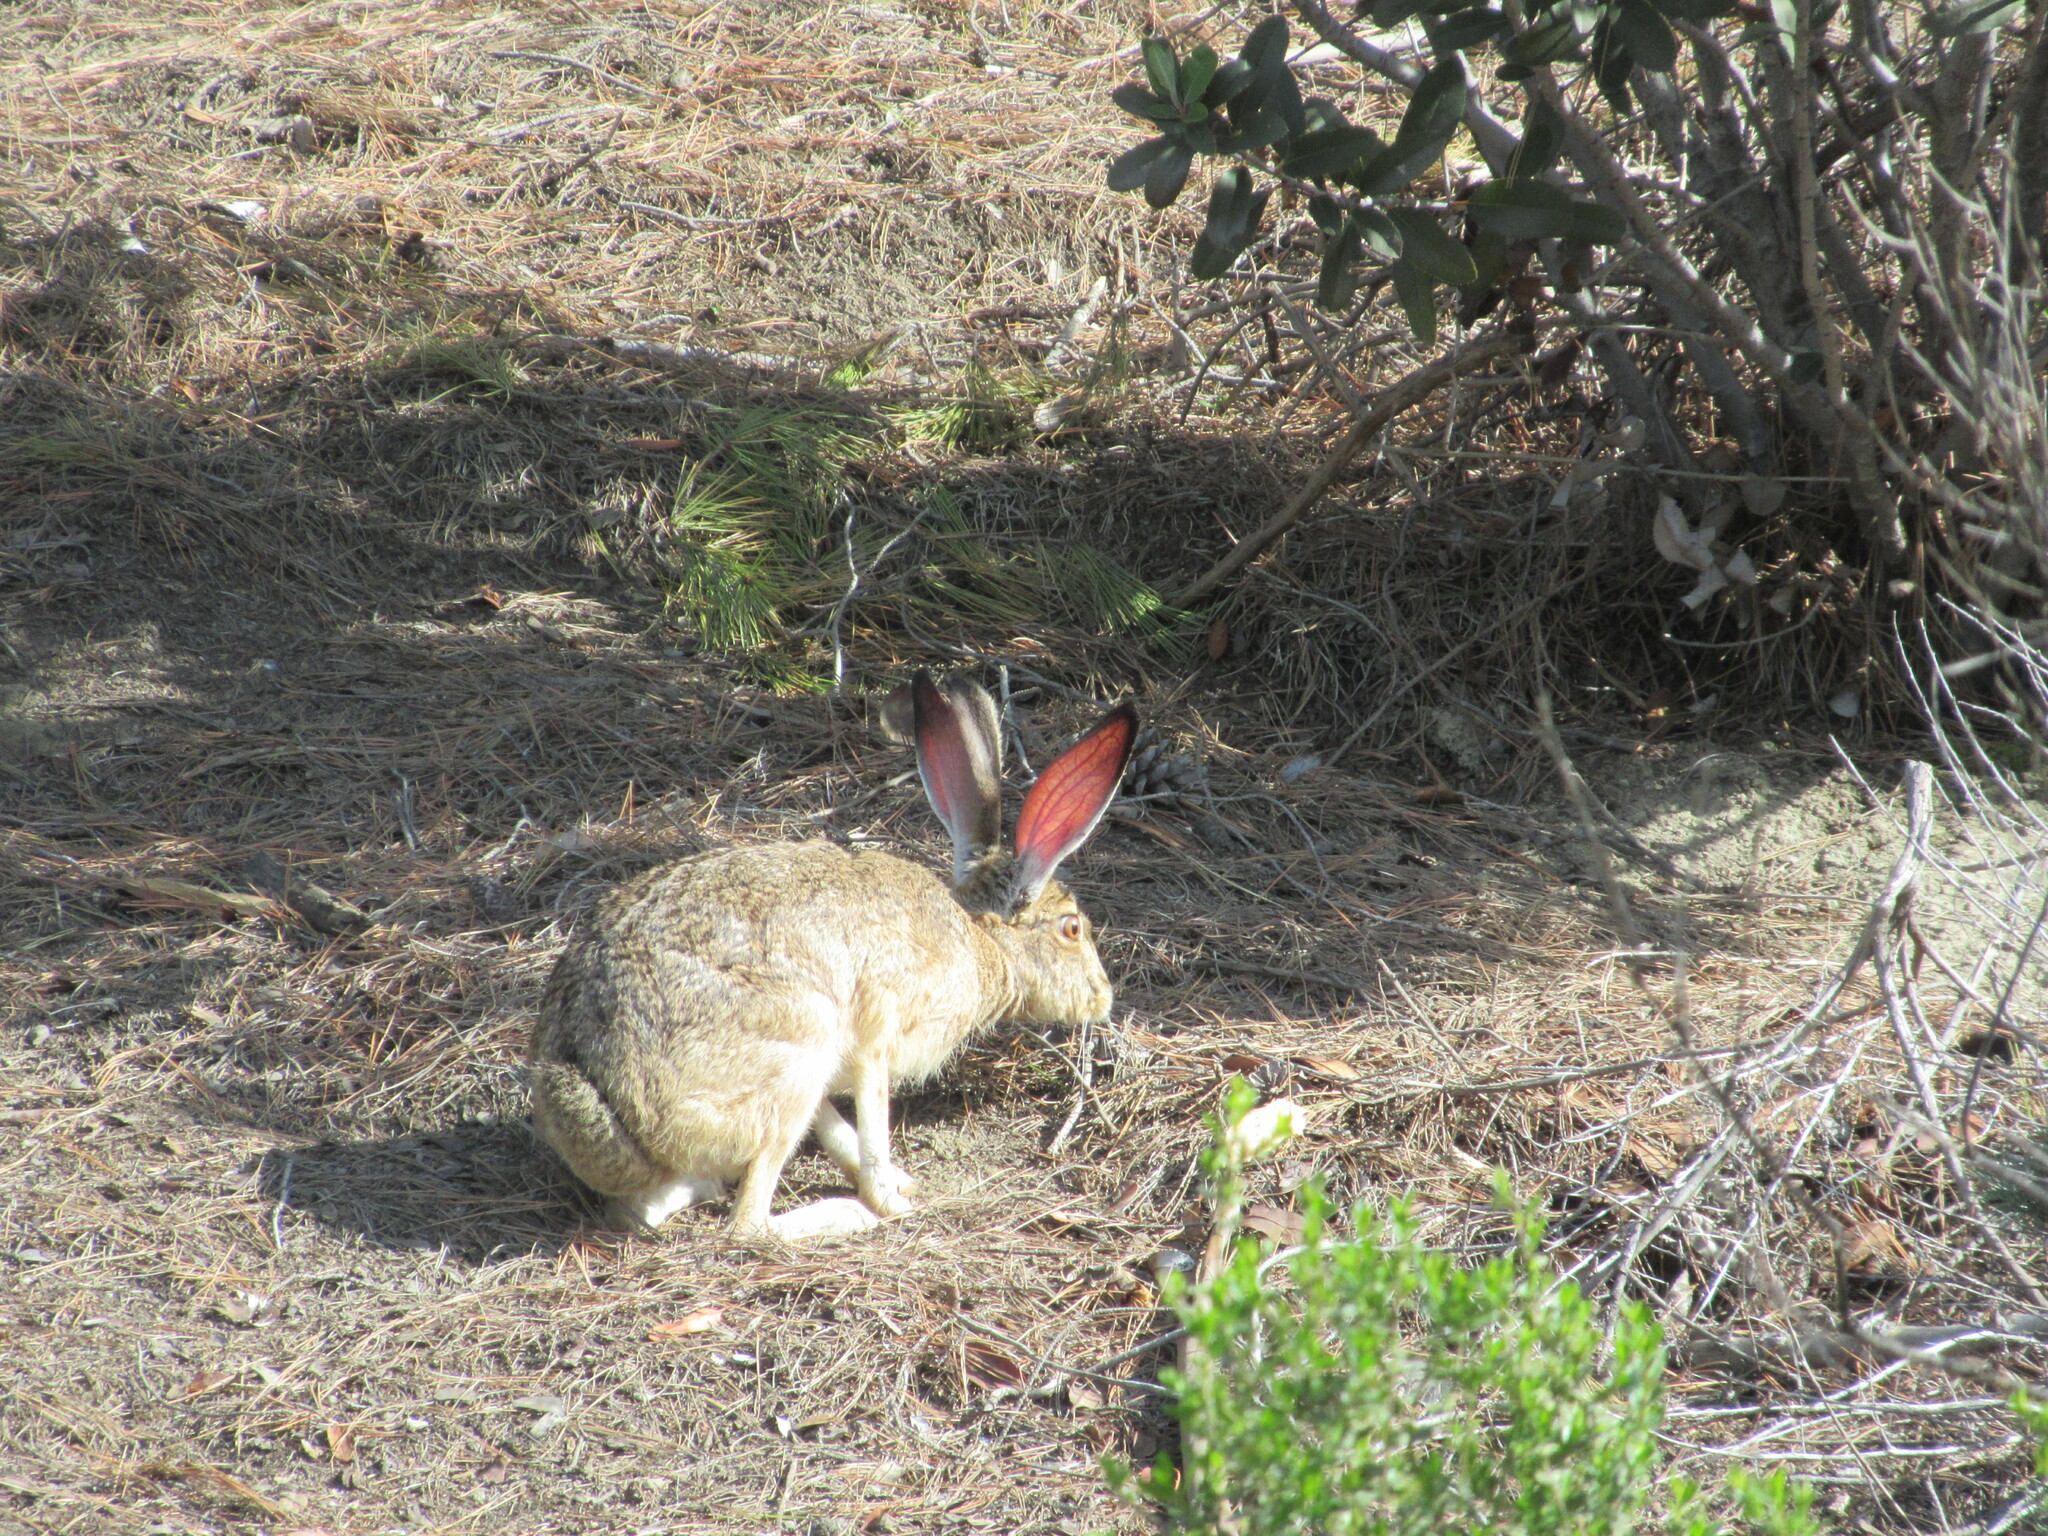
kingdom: Animalia
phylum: Chordata
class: Mammalia
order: Lagomorpha
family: Leporidae
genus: Lepus
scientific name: Lepus californicus
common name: Black-tailed jackrabbit
